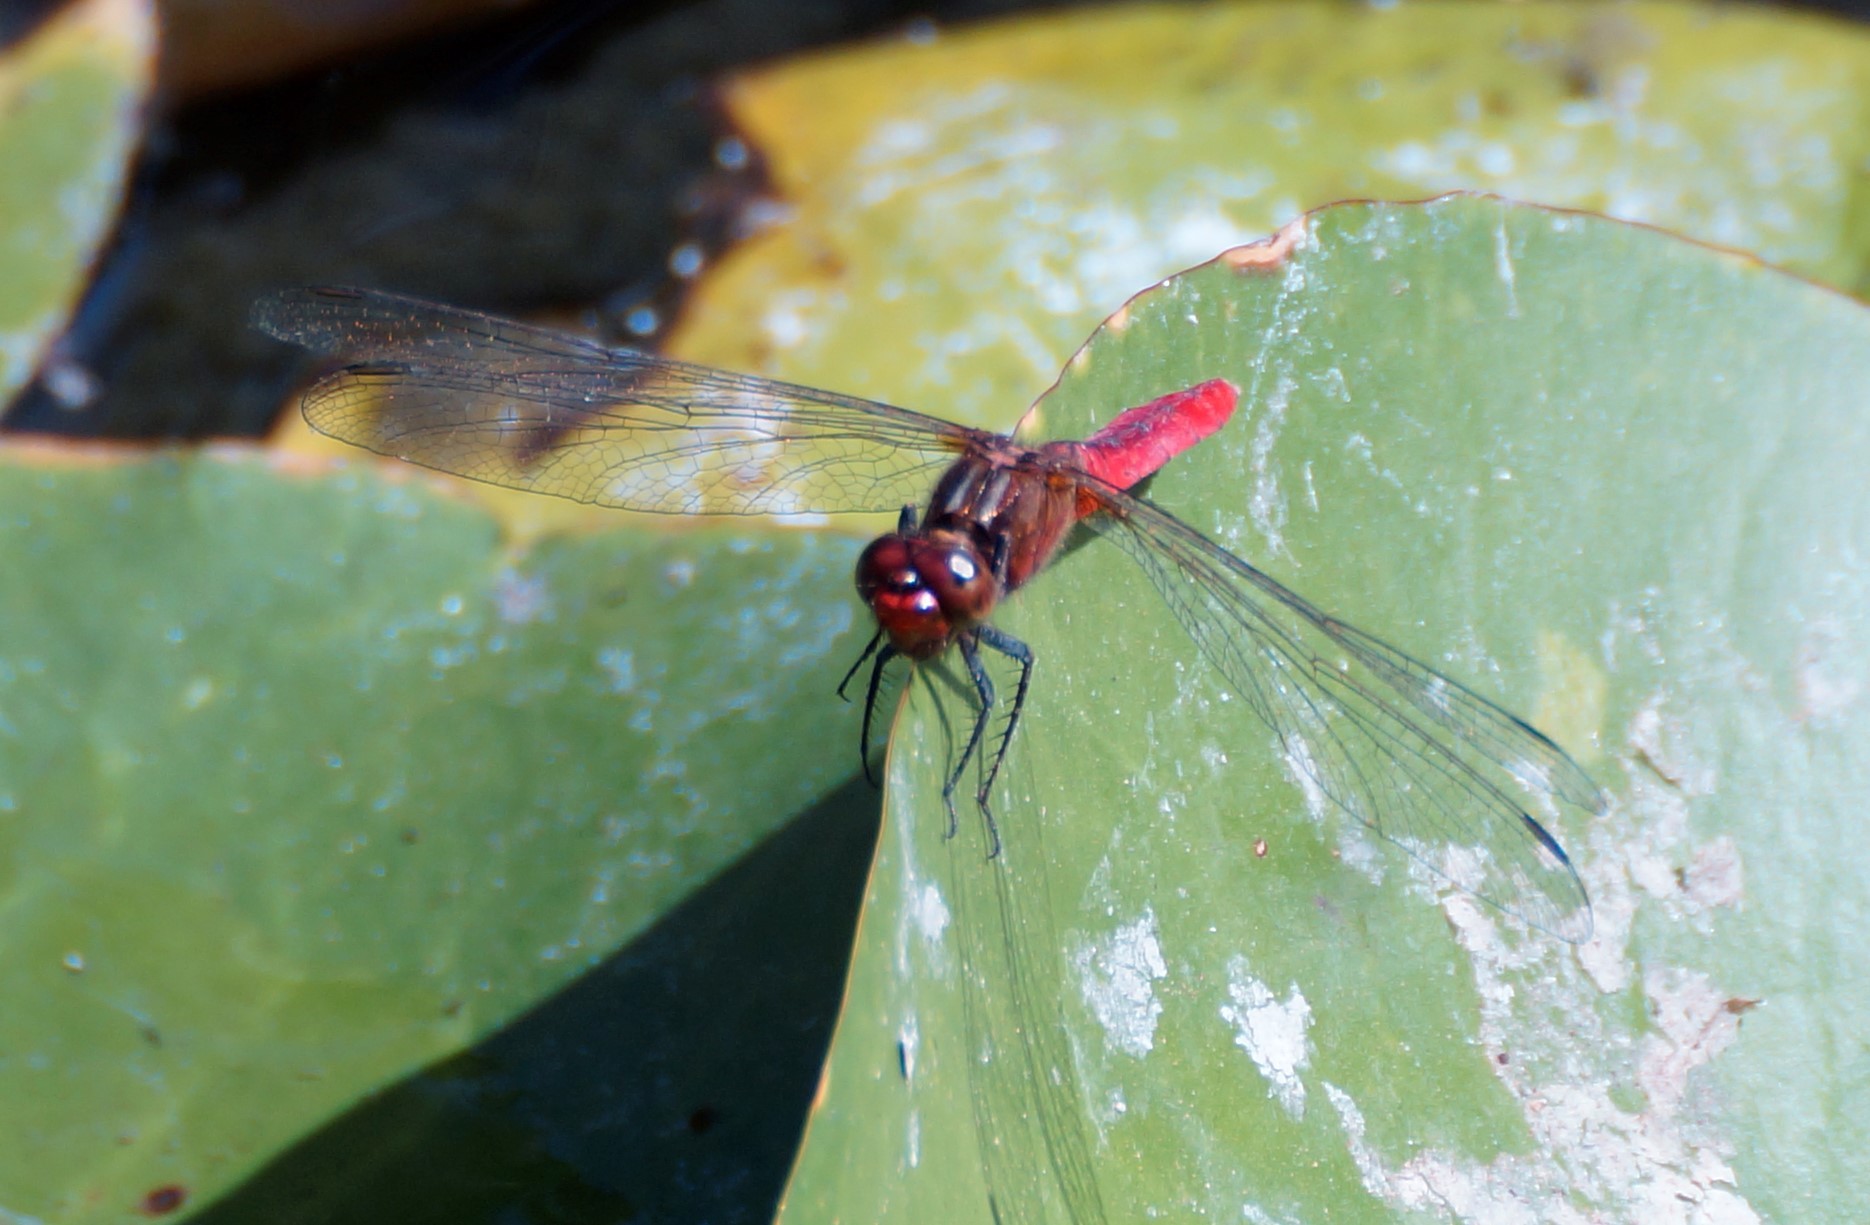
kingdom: Animalia
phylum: Arthropoda
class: Insecta
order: Odonata
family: Libellulidae
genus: Rhodothemis
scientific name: Rhodothemis lieftincki
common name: Red arrow
